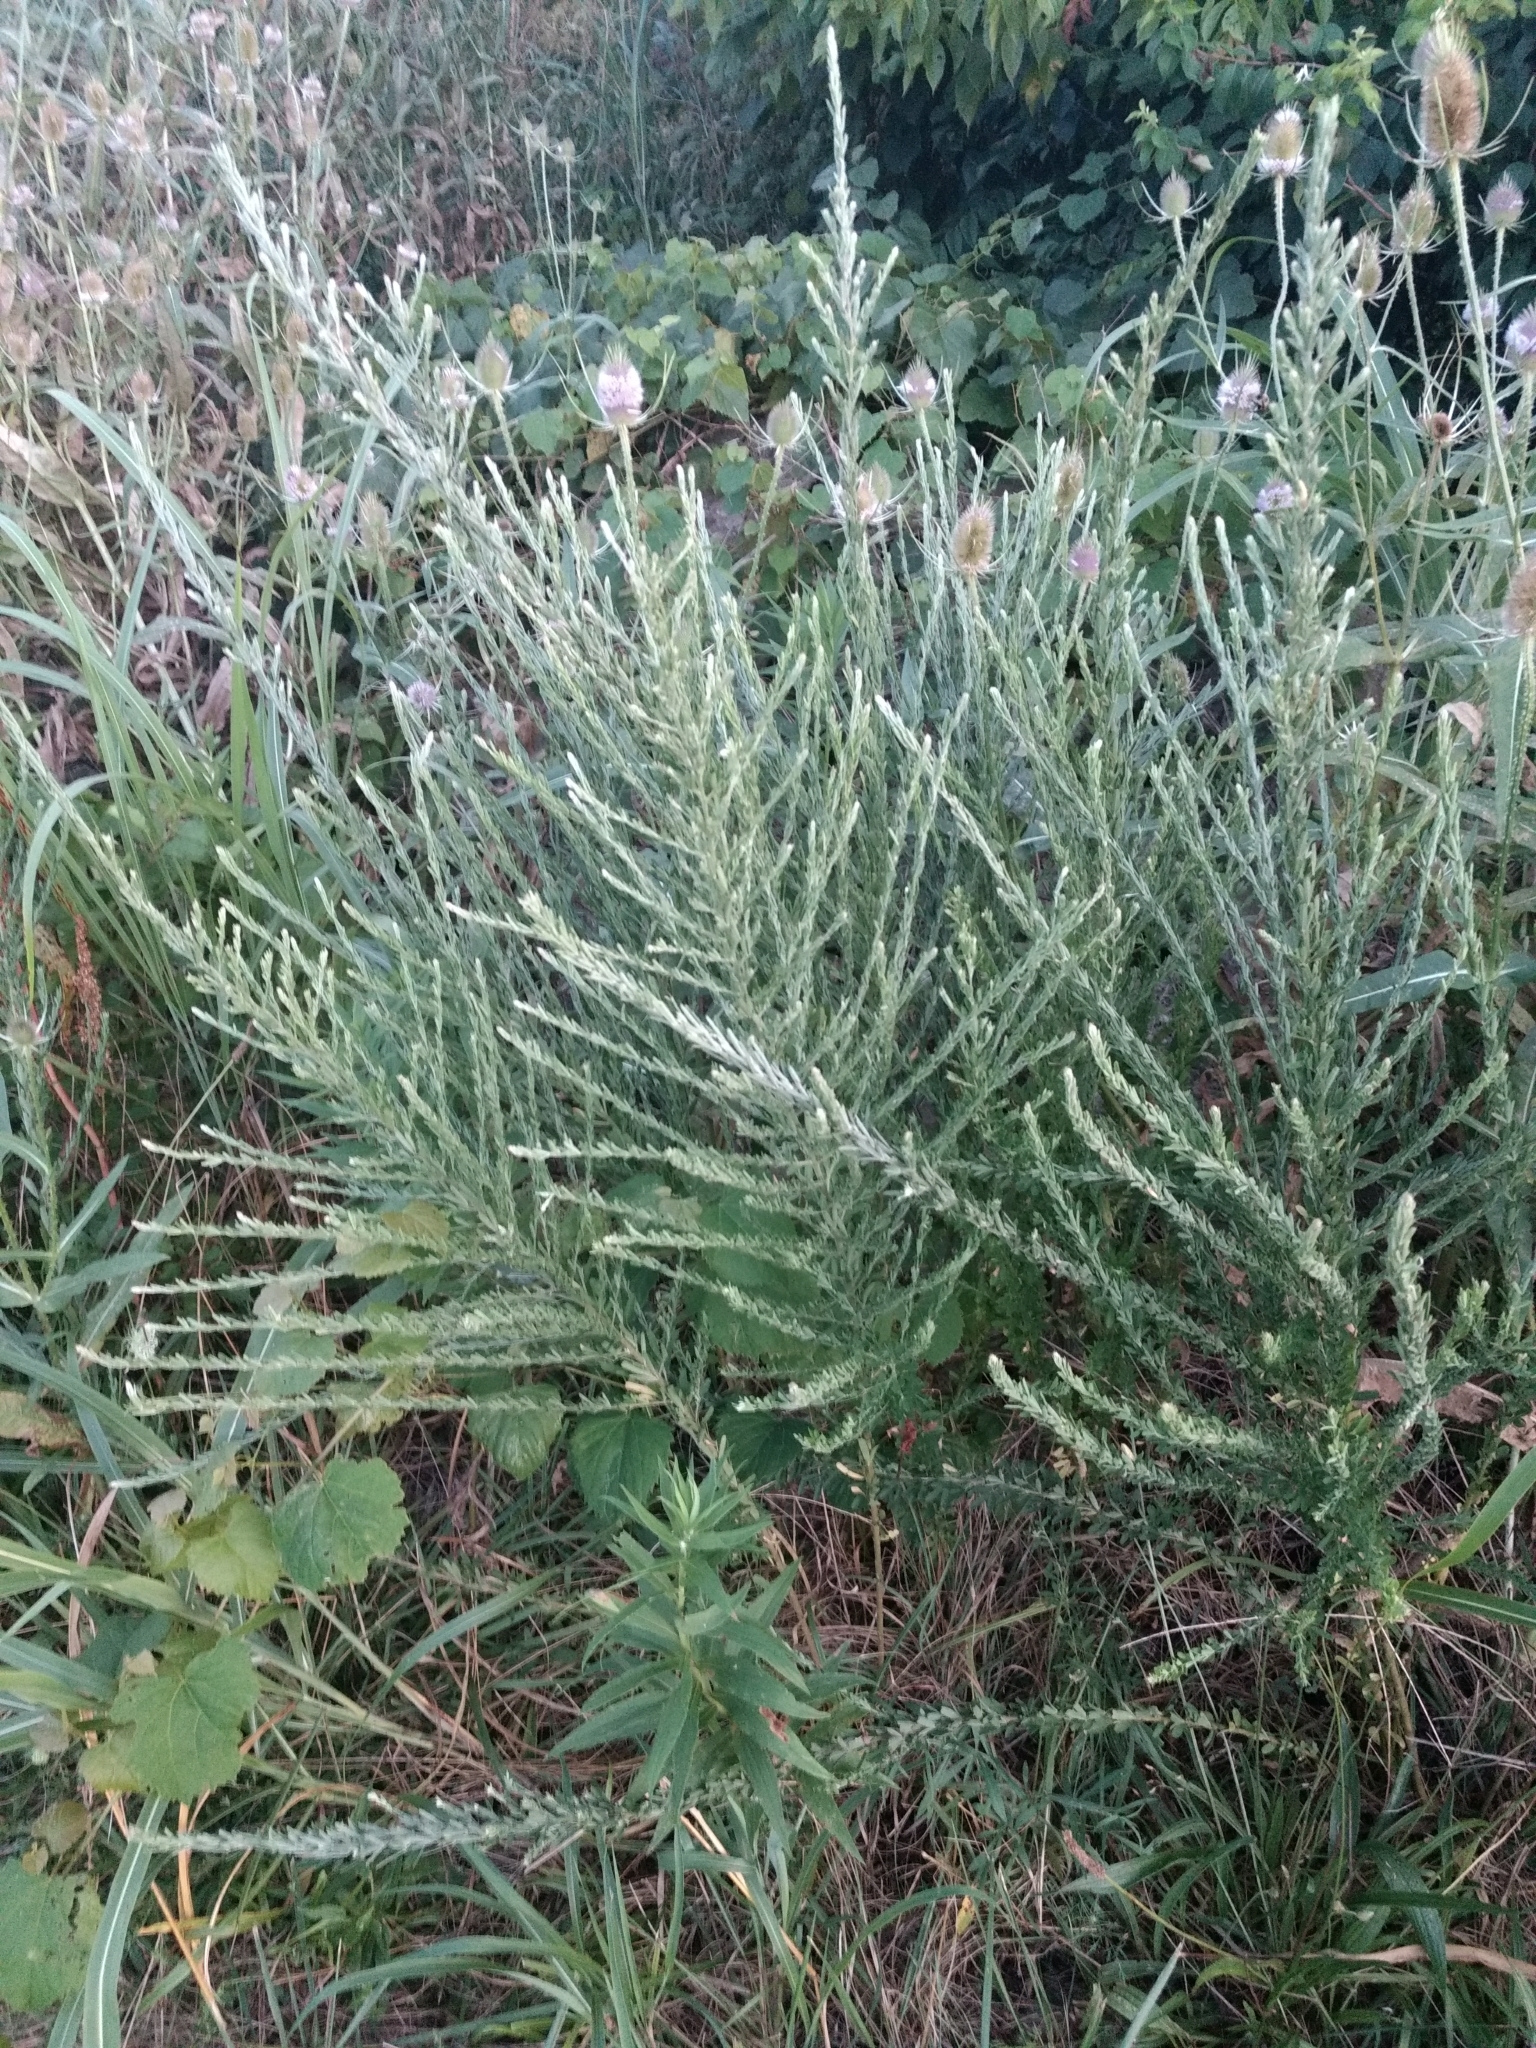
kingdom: Plantae
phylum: Tracheophyta
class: Magnoliopsida
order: Fabales
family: Fabaceae
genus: Lespedeza
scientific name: Lespedeza cuneata
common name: Chinese bush-clover
